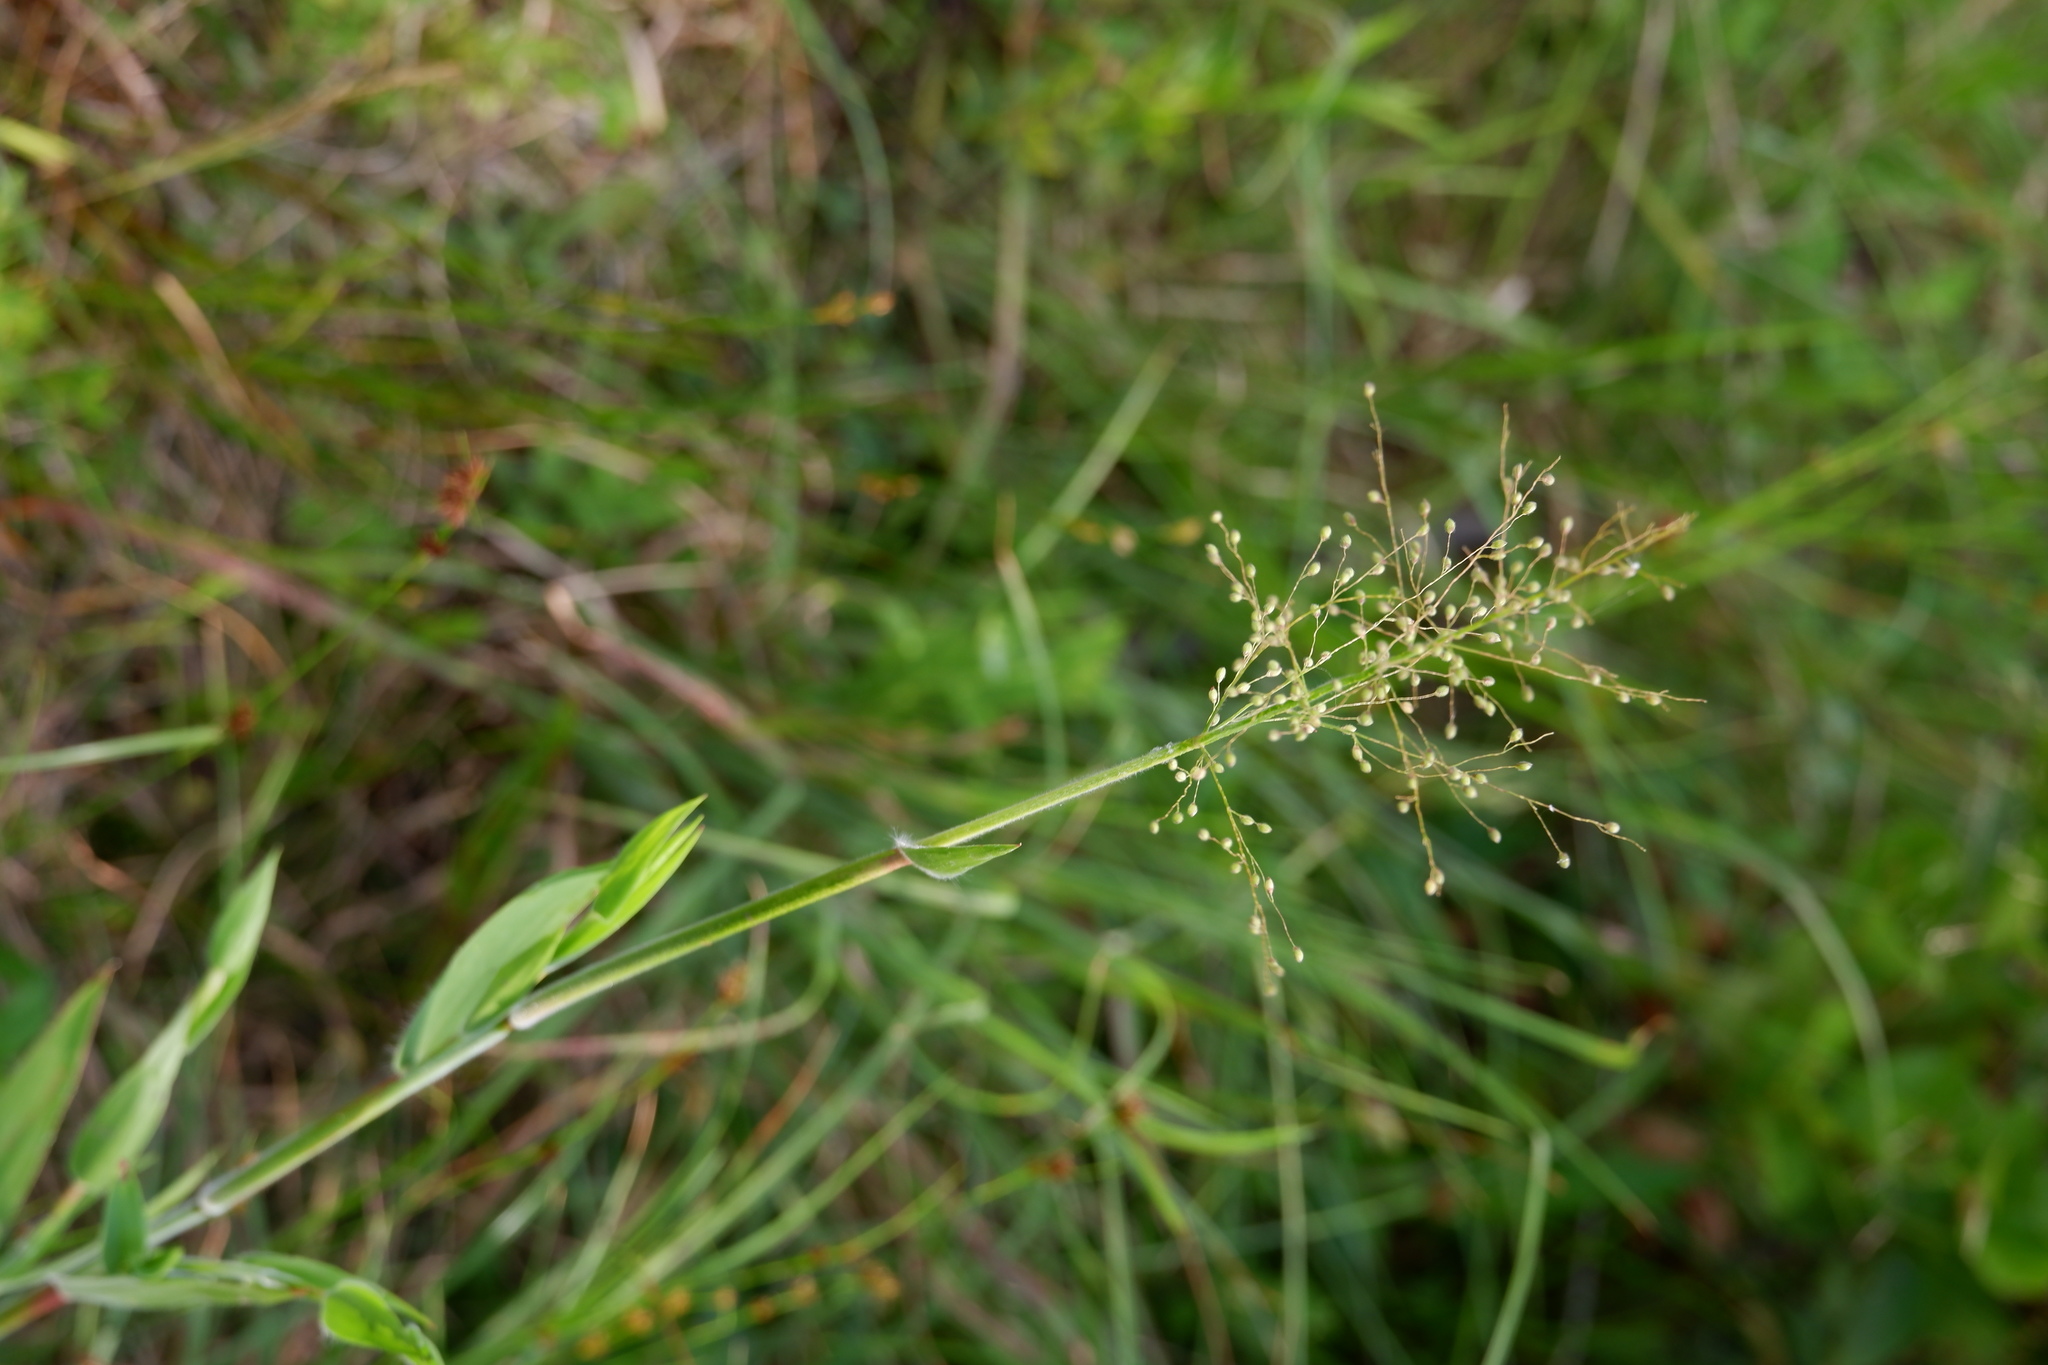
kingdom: Plantae
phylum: Tracheophyta
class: Liliopsida
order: Poales
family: Poaceae
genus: Dichanthelium
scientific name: Dichanthelium scoparium
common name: Velvety panic grass
